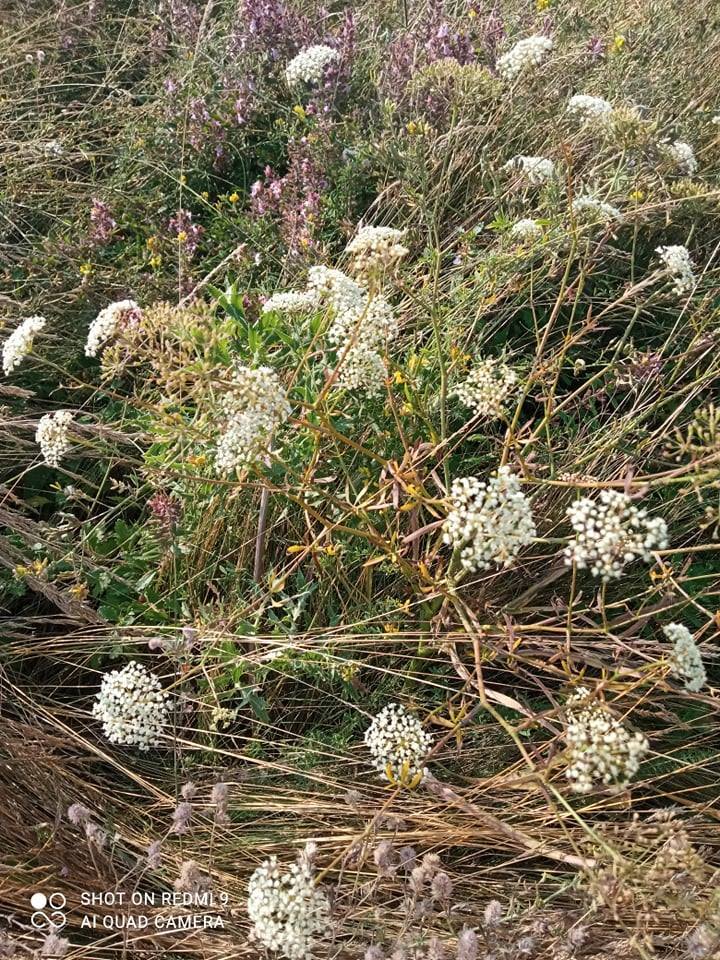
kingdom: Plantae
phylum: Tracheophyta
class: Magnoliopsida
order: Apiales
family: Apiaceae
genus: Falcaria
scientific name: Falcaria vulgaris
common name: Longleaf
